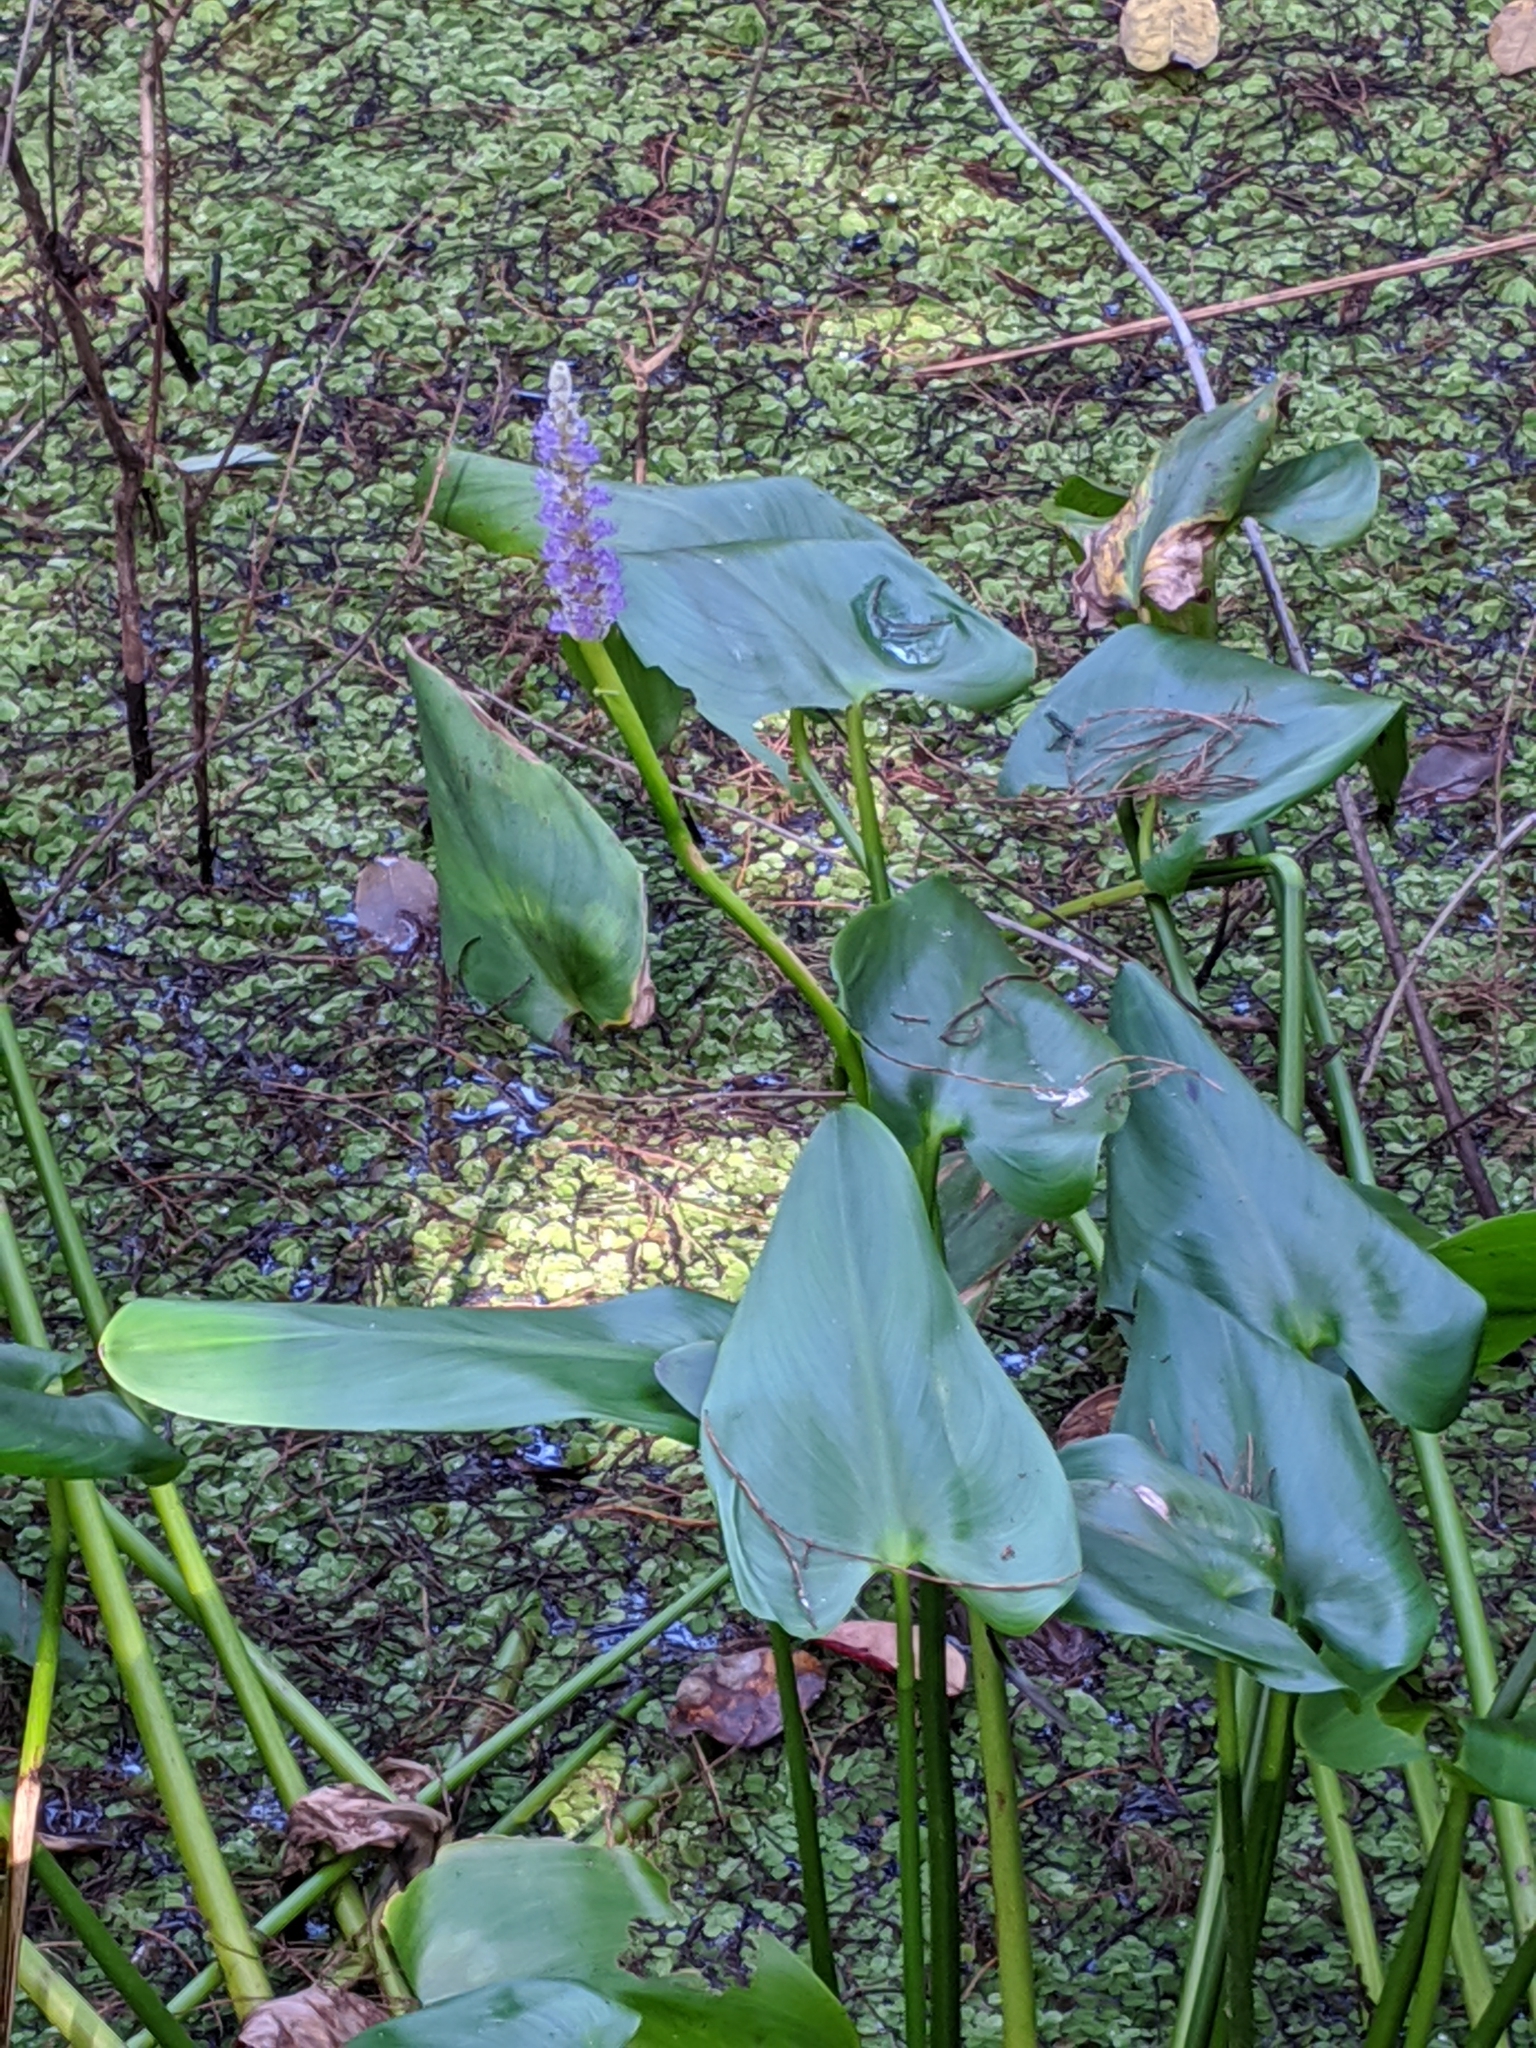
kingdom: Plantae
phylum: Tracheophyta
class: Liliopsida
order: Commelinales
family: Pontederiaceae
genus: Pontederia
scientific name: Pontederia cordata
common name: Pickerelweed
